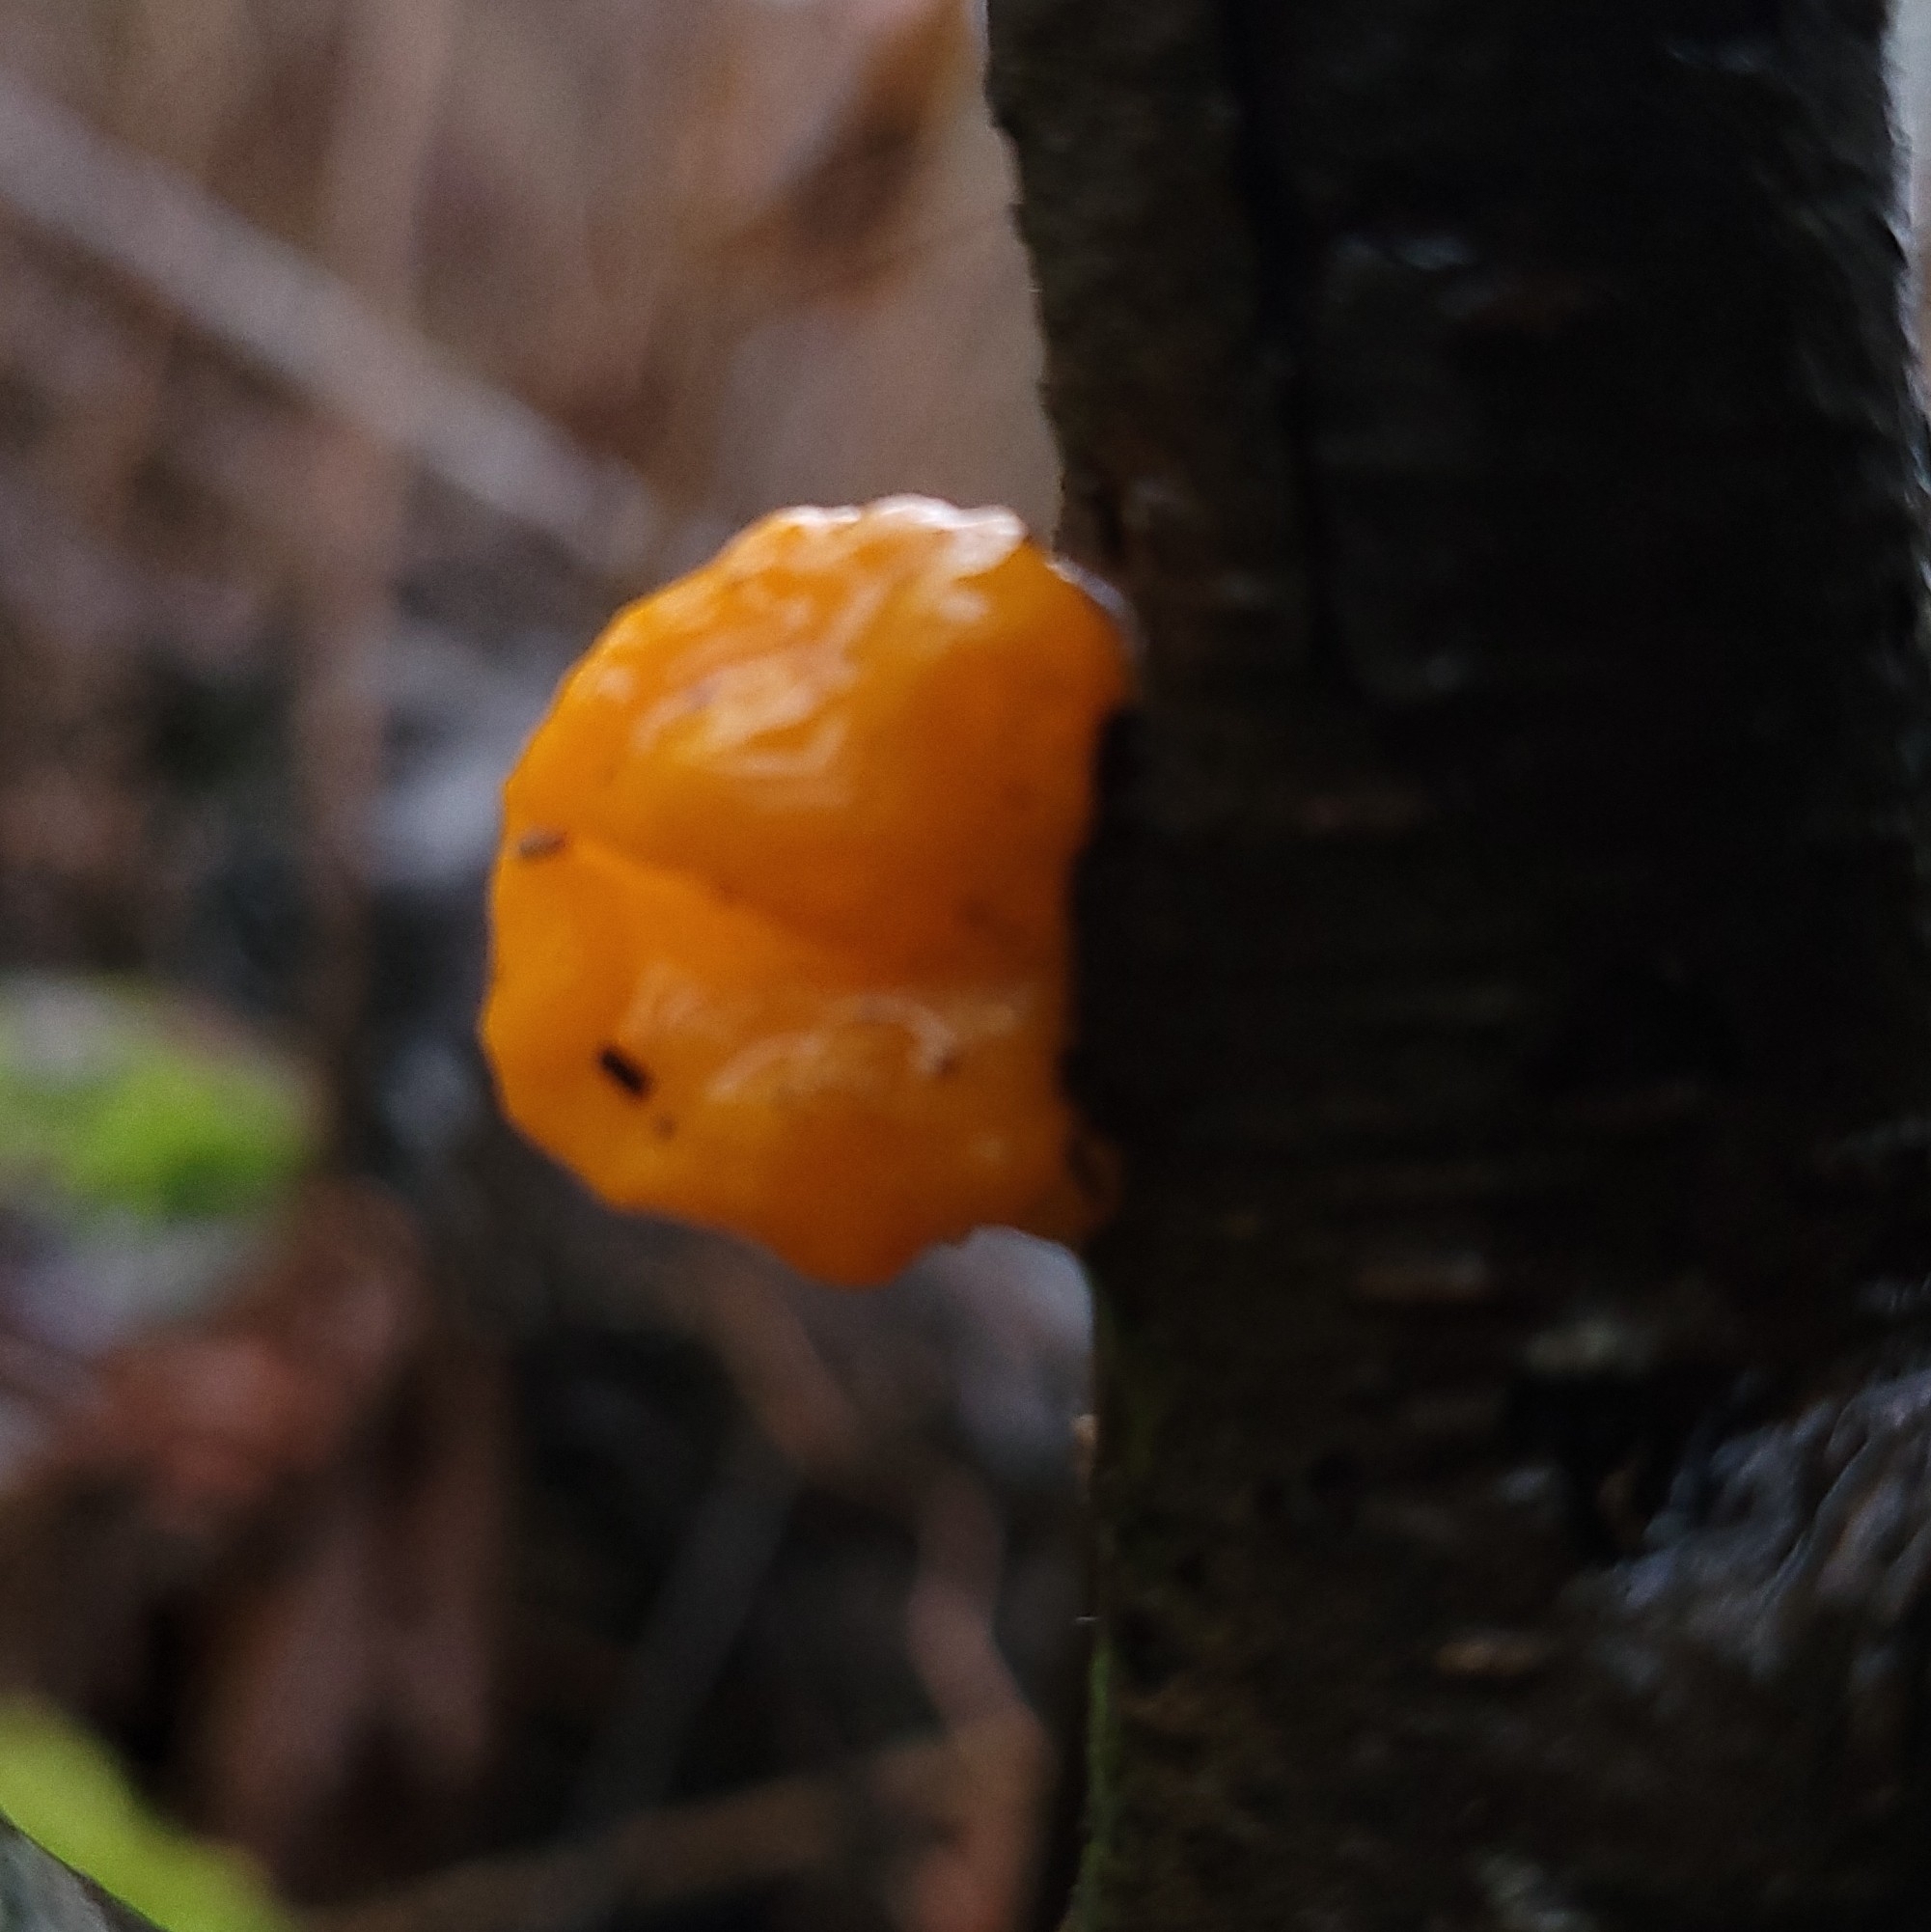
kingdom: Fungi
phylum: Basidiomycota
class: Tremellomycetes
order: Tremellales
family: Tremellaceae
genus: Tremella
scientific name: Tremella mesenterica
